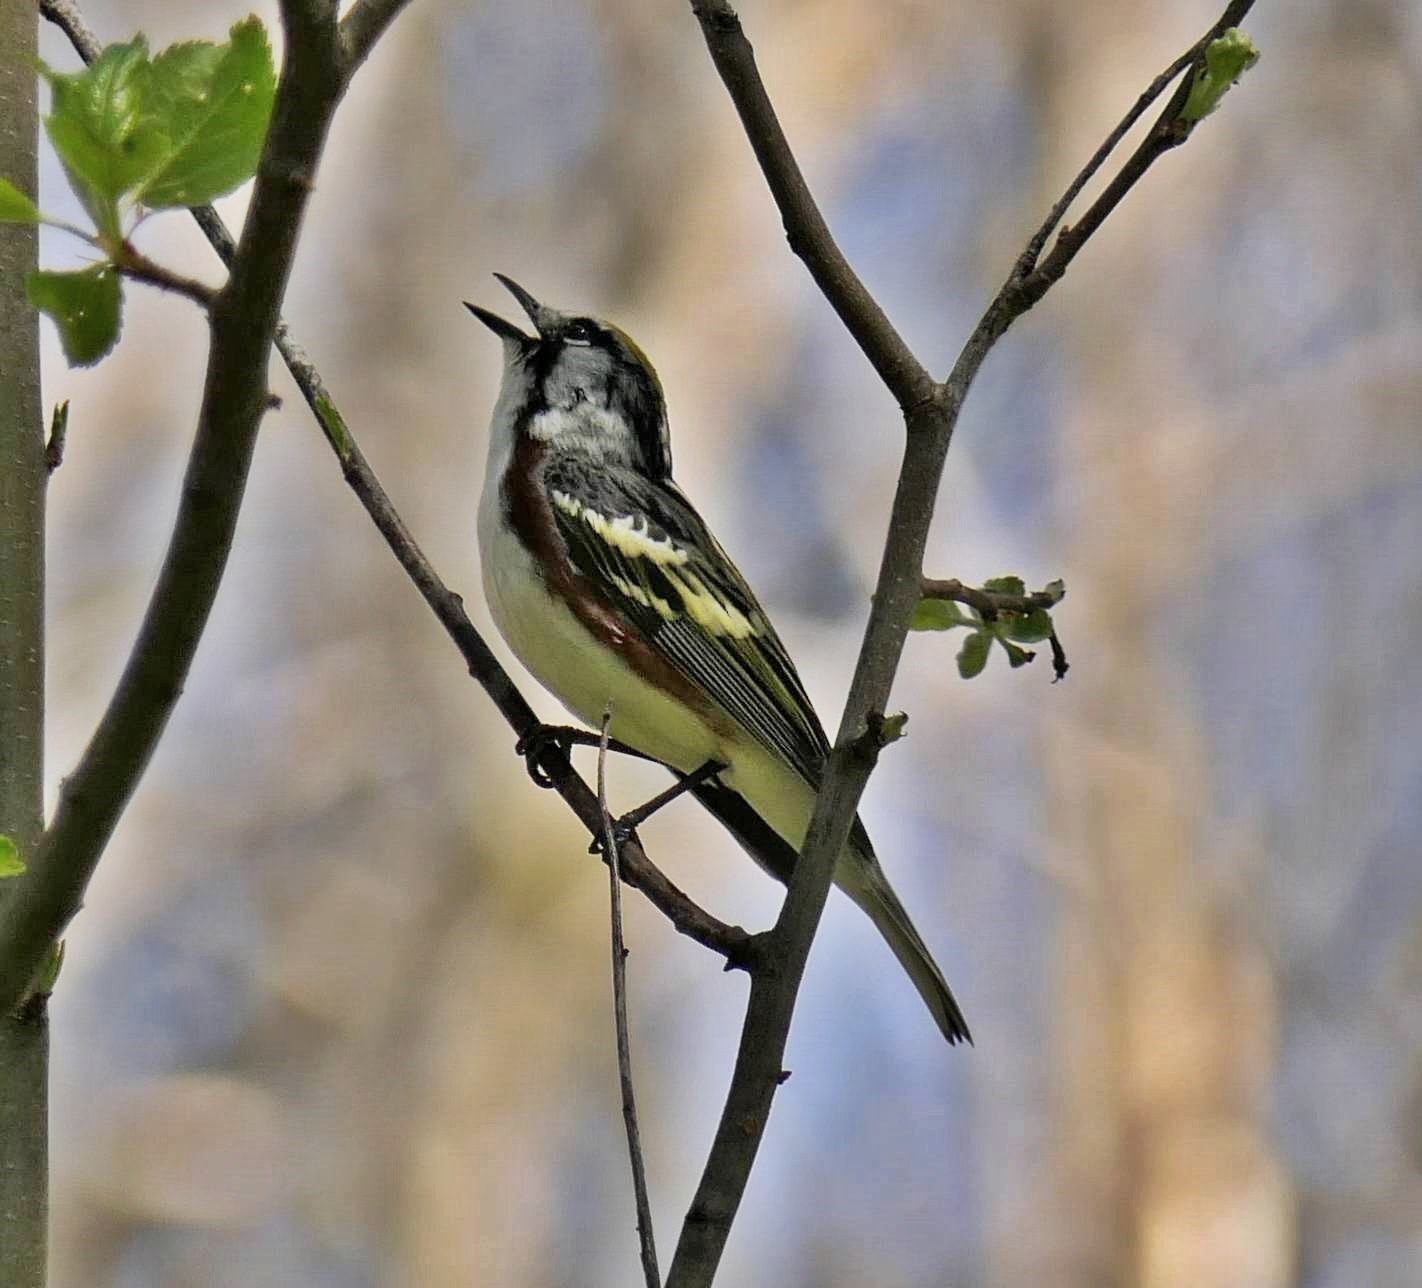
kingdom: Animalia
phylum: Chordata
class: Aves
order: Passeriformes
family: Parulidae
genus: Setophaga
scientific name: Setophaga pensylvanica
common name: Chestnut-sided warbler
